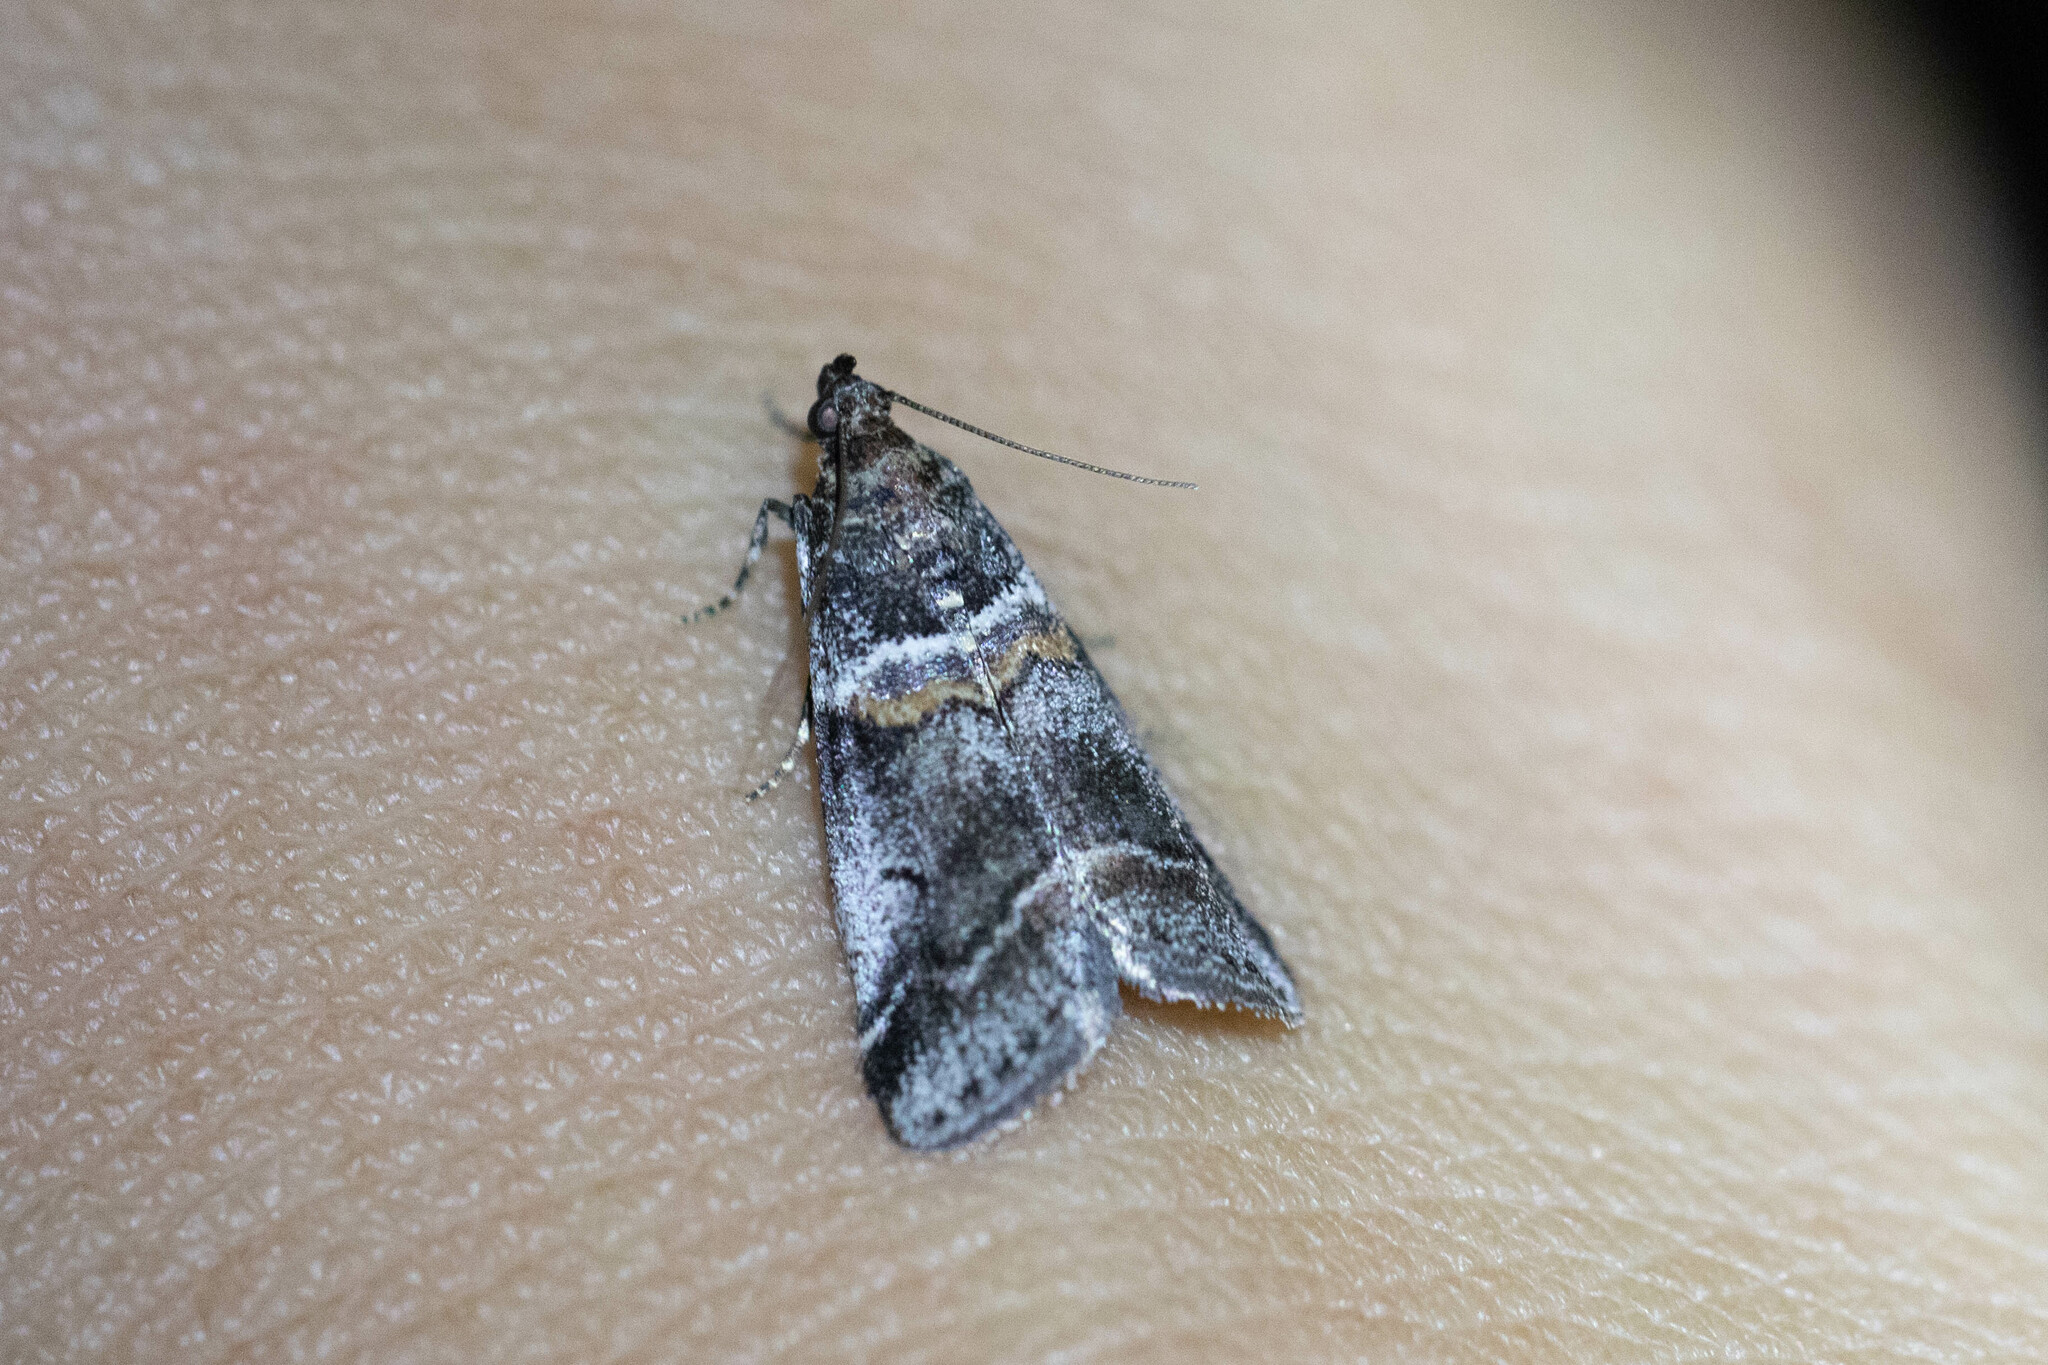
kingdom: Animalia
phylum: Arthropoda
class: Insecta
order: Lepidoptera
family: Pyralidae
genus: Acrobasis
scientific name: Acrobasis tricolorella
